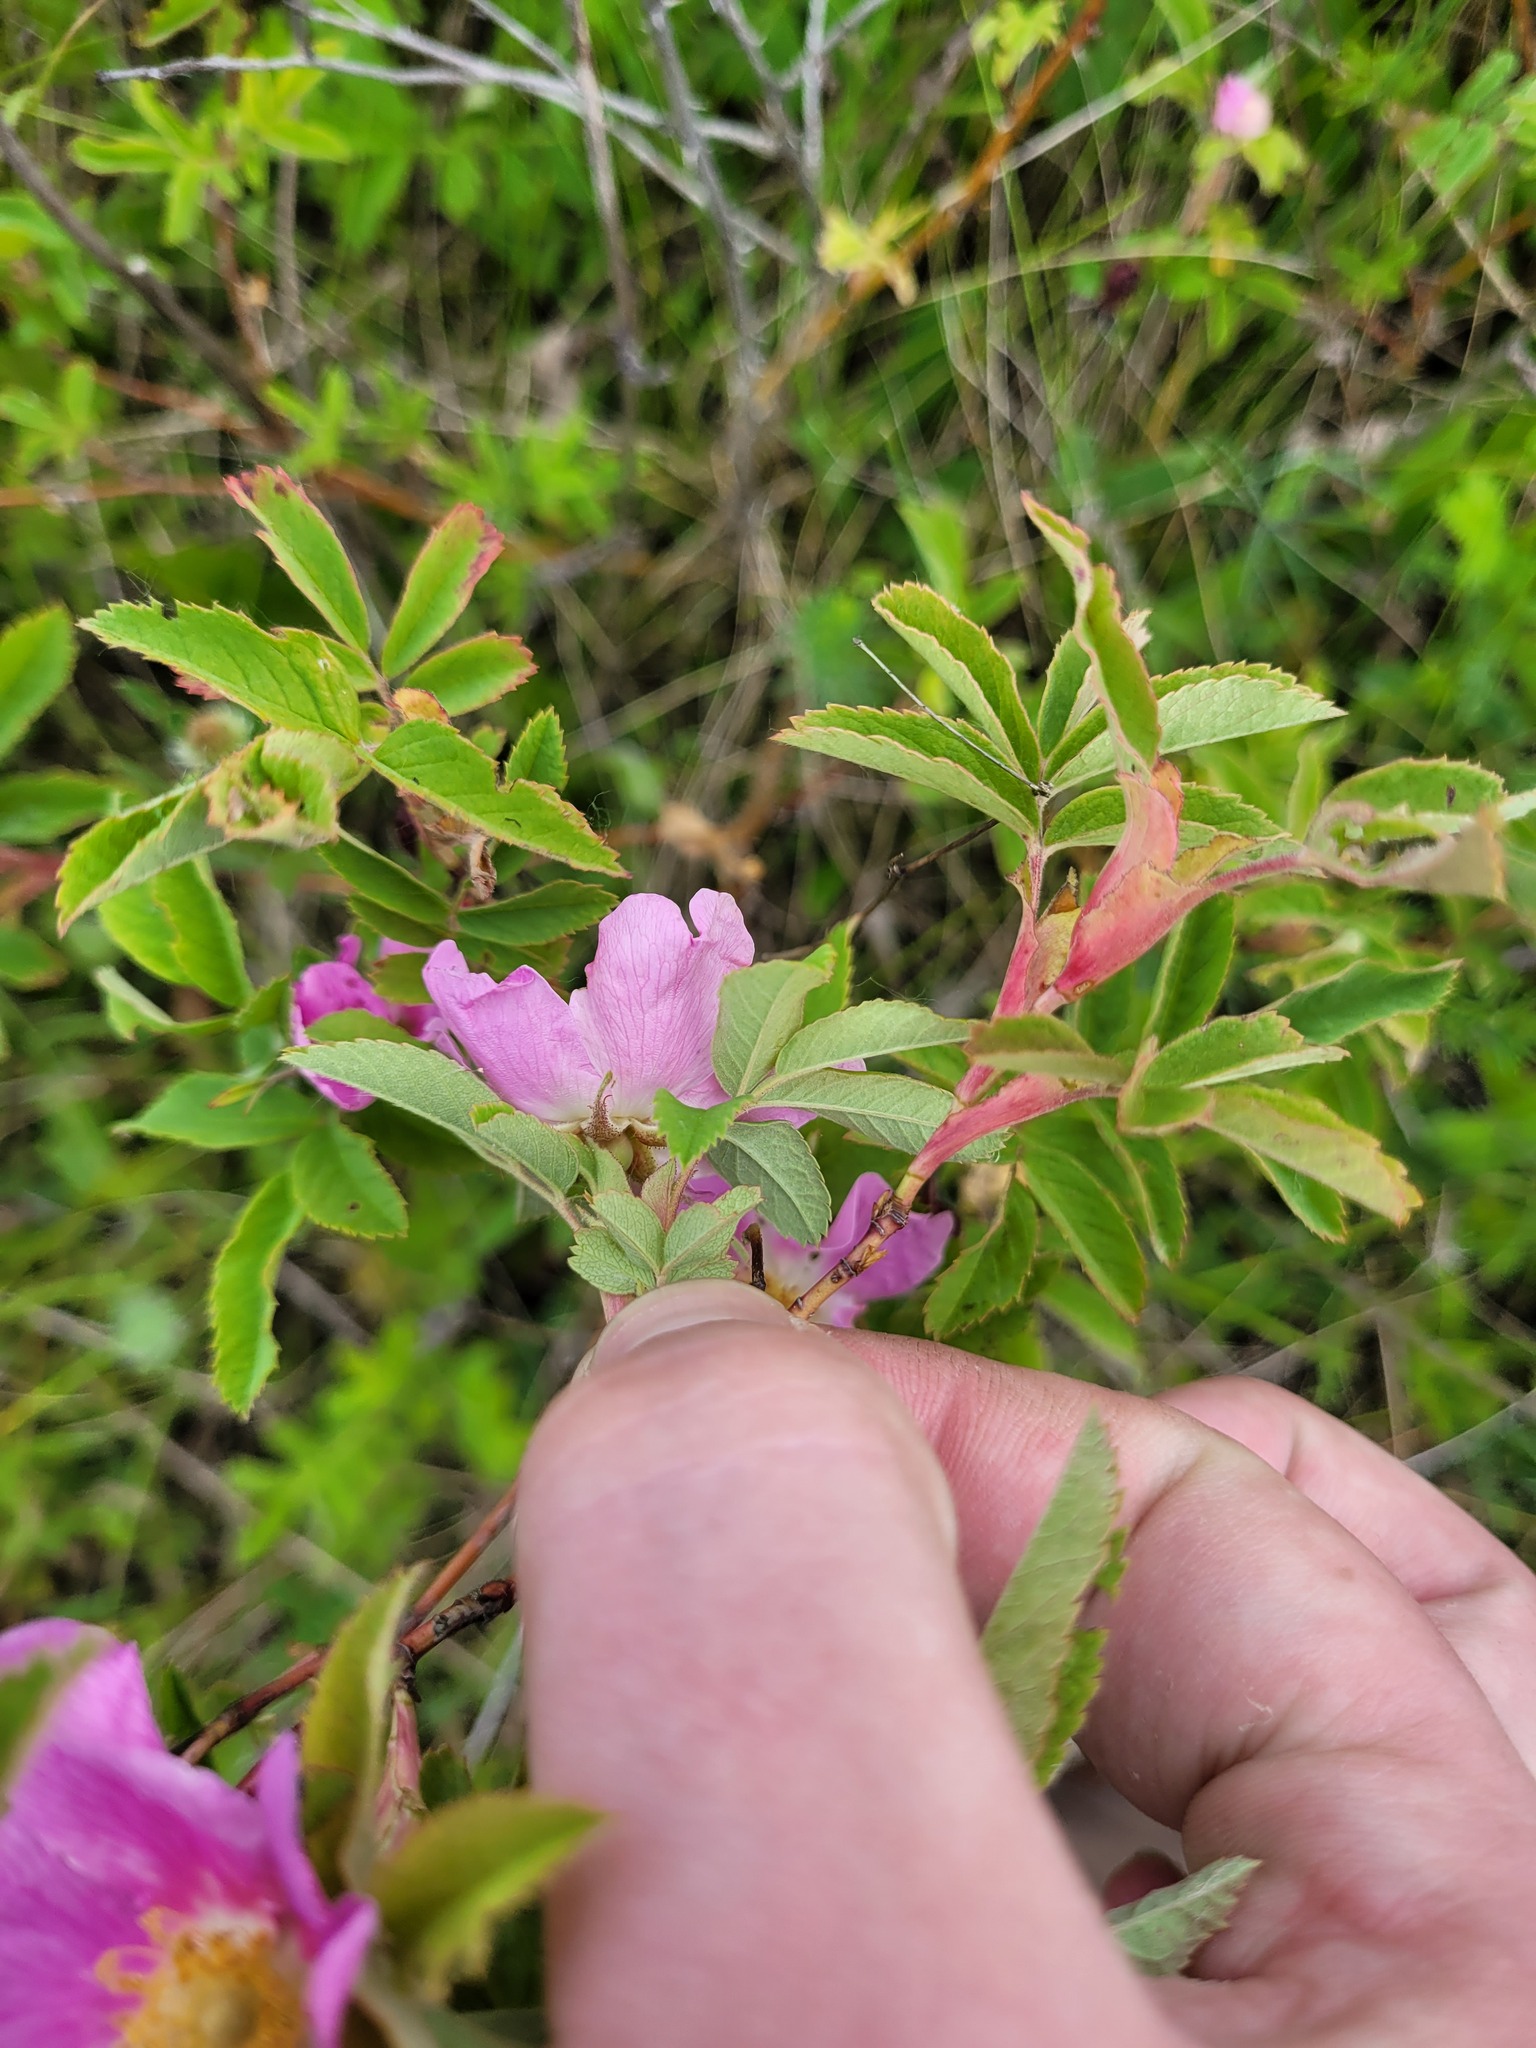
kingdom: Plantae
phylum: Tracheophyta
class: Magnoliopsida
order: Rosales
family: Rosaceae
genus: Rosa
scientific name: Rosa majalis
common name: Cinnamon rose
